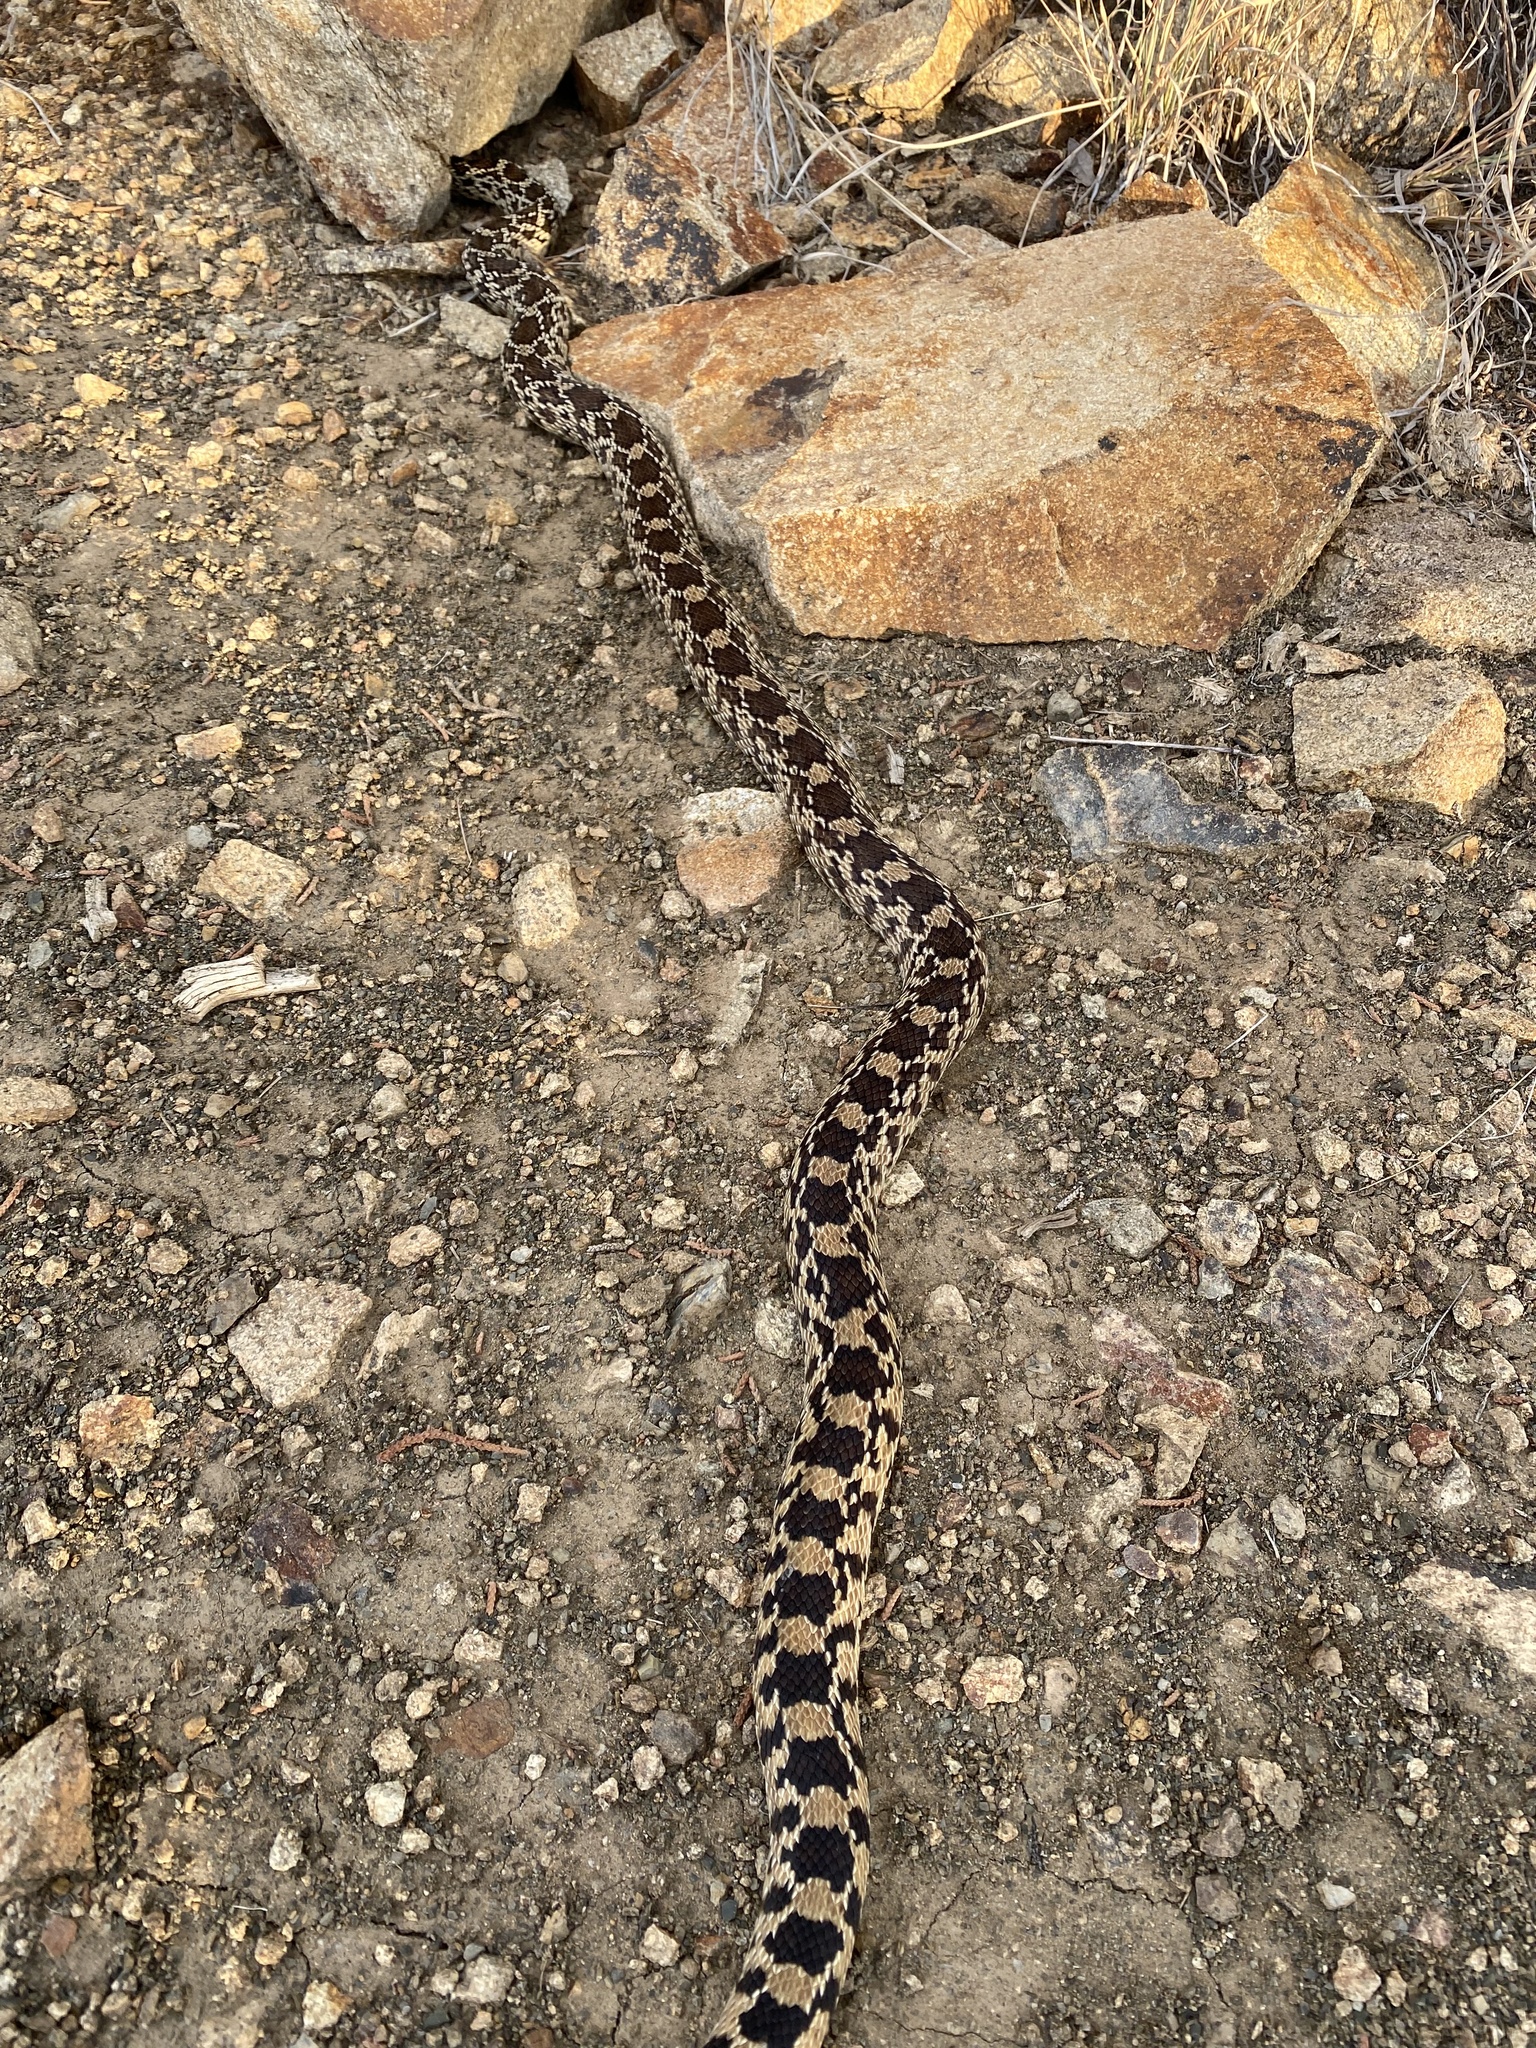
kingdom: Animalia
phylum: Chordata
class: Squamata
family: Colubridae
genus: Pituophis
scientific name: Pituophis catenifer
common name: Gopher snake
